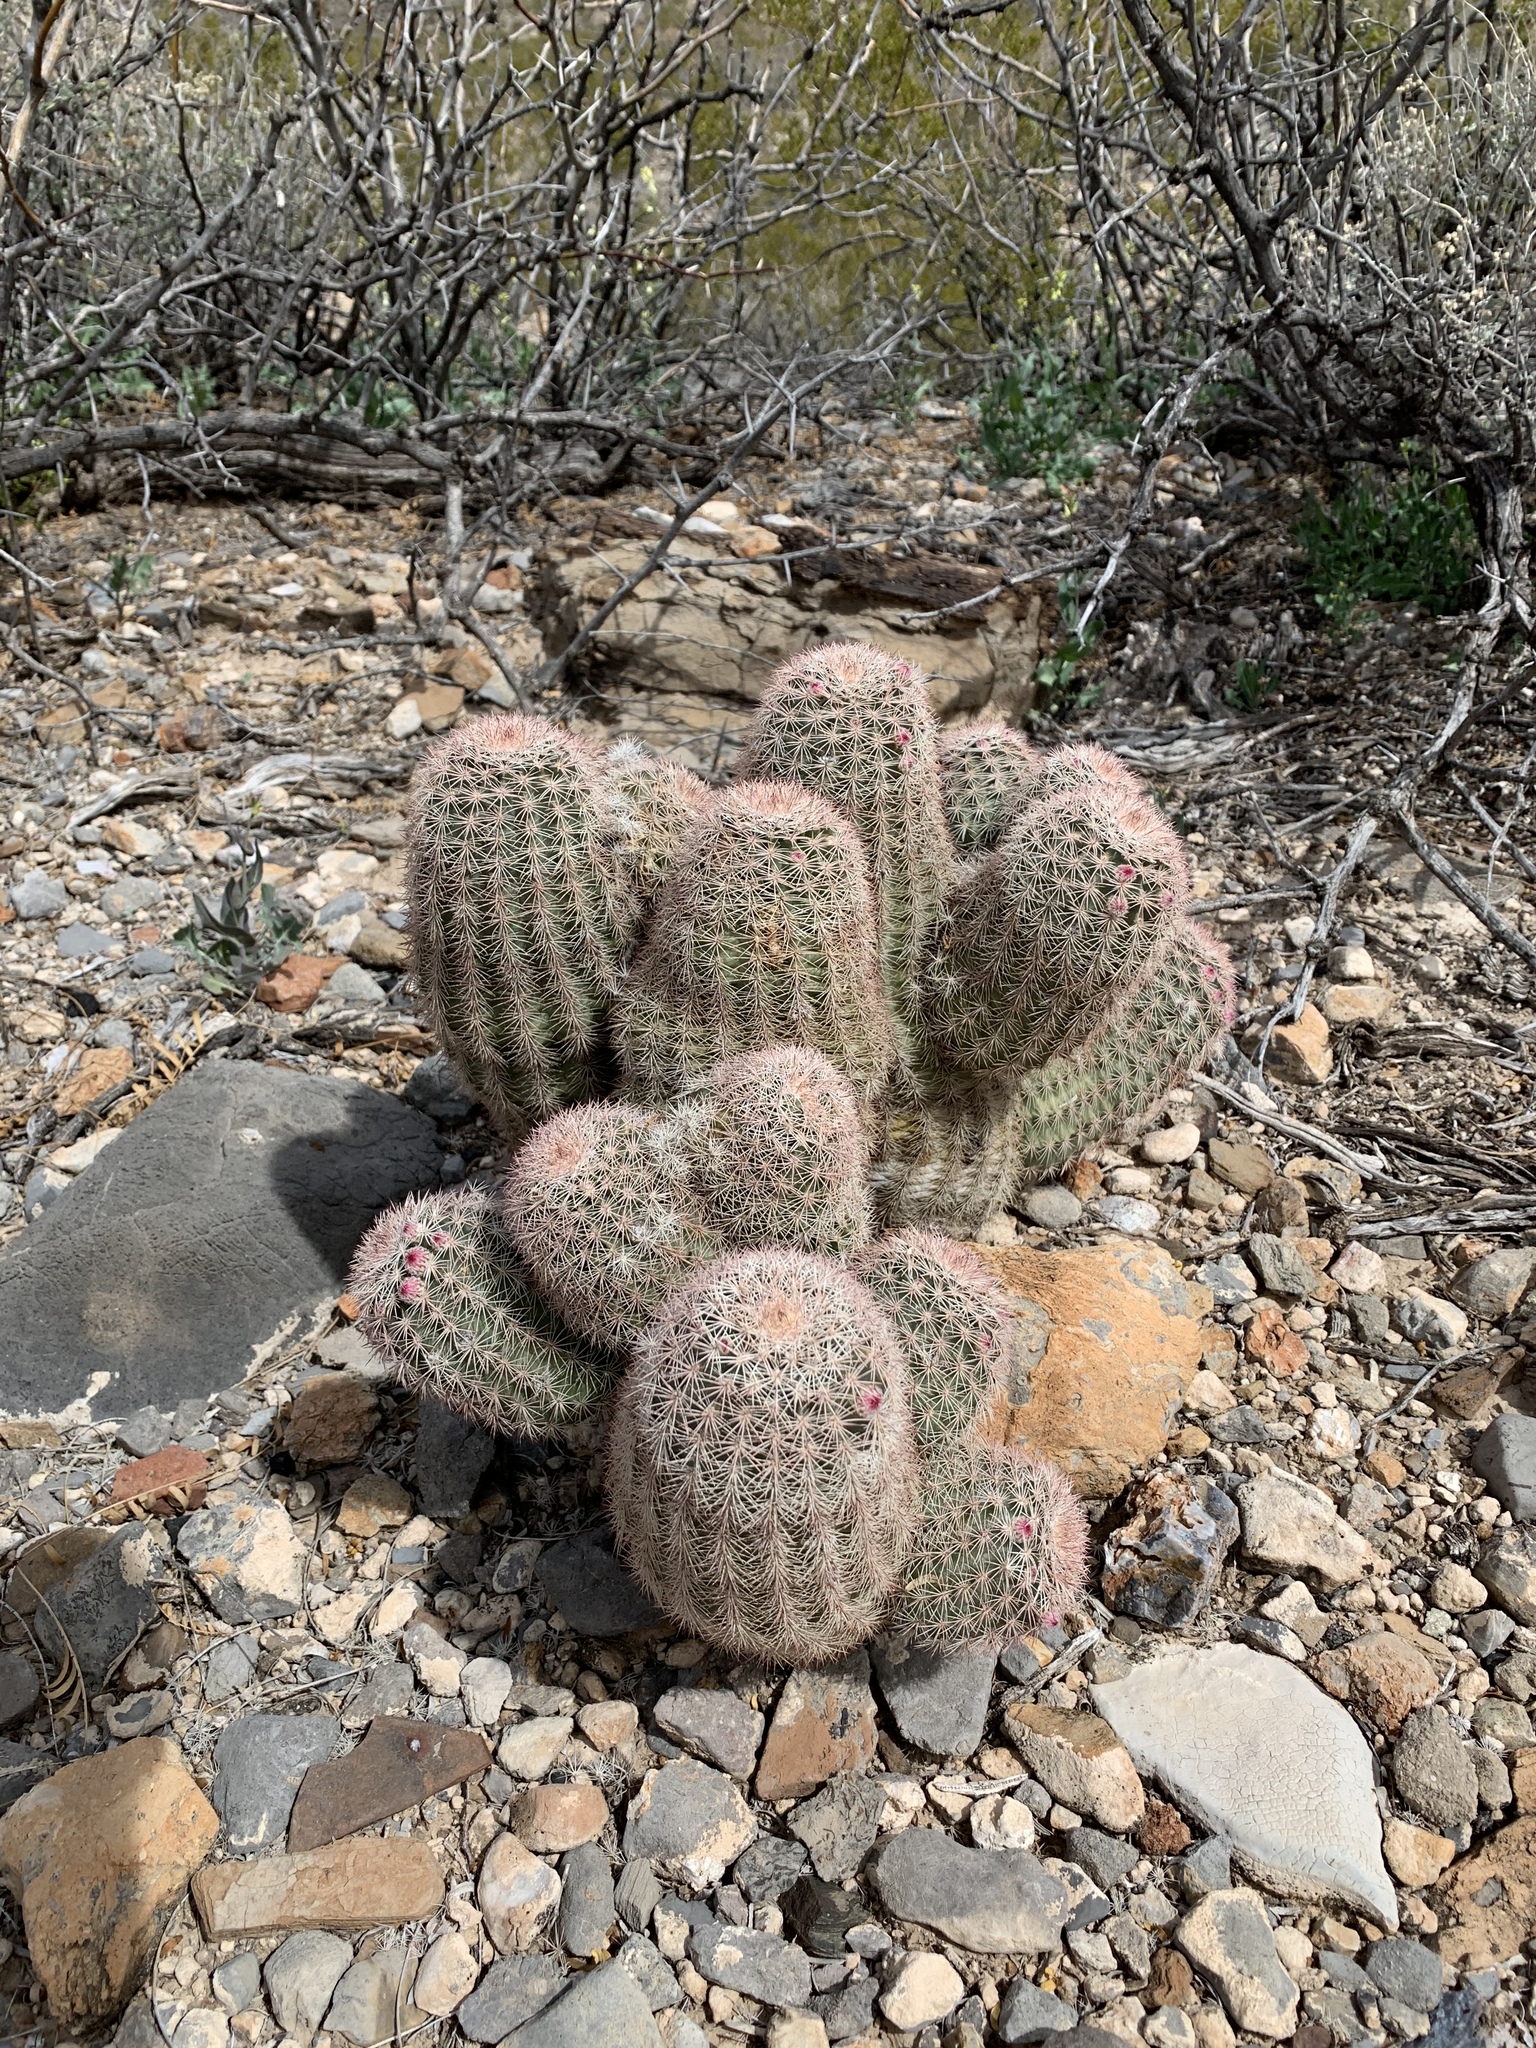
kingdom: Plantae
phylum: Tracheophyta
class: Magnoliopsida
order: Caryophyllales
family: Cactaceae
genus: Echinocereus
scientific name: Echinocereus dasyacanthus
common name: Spiny hedgehog cactus
